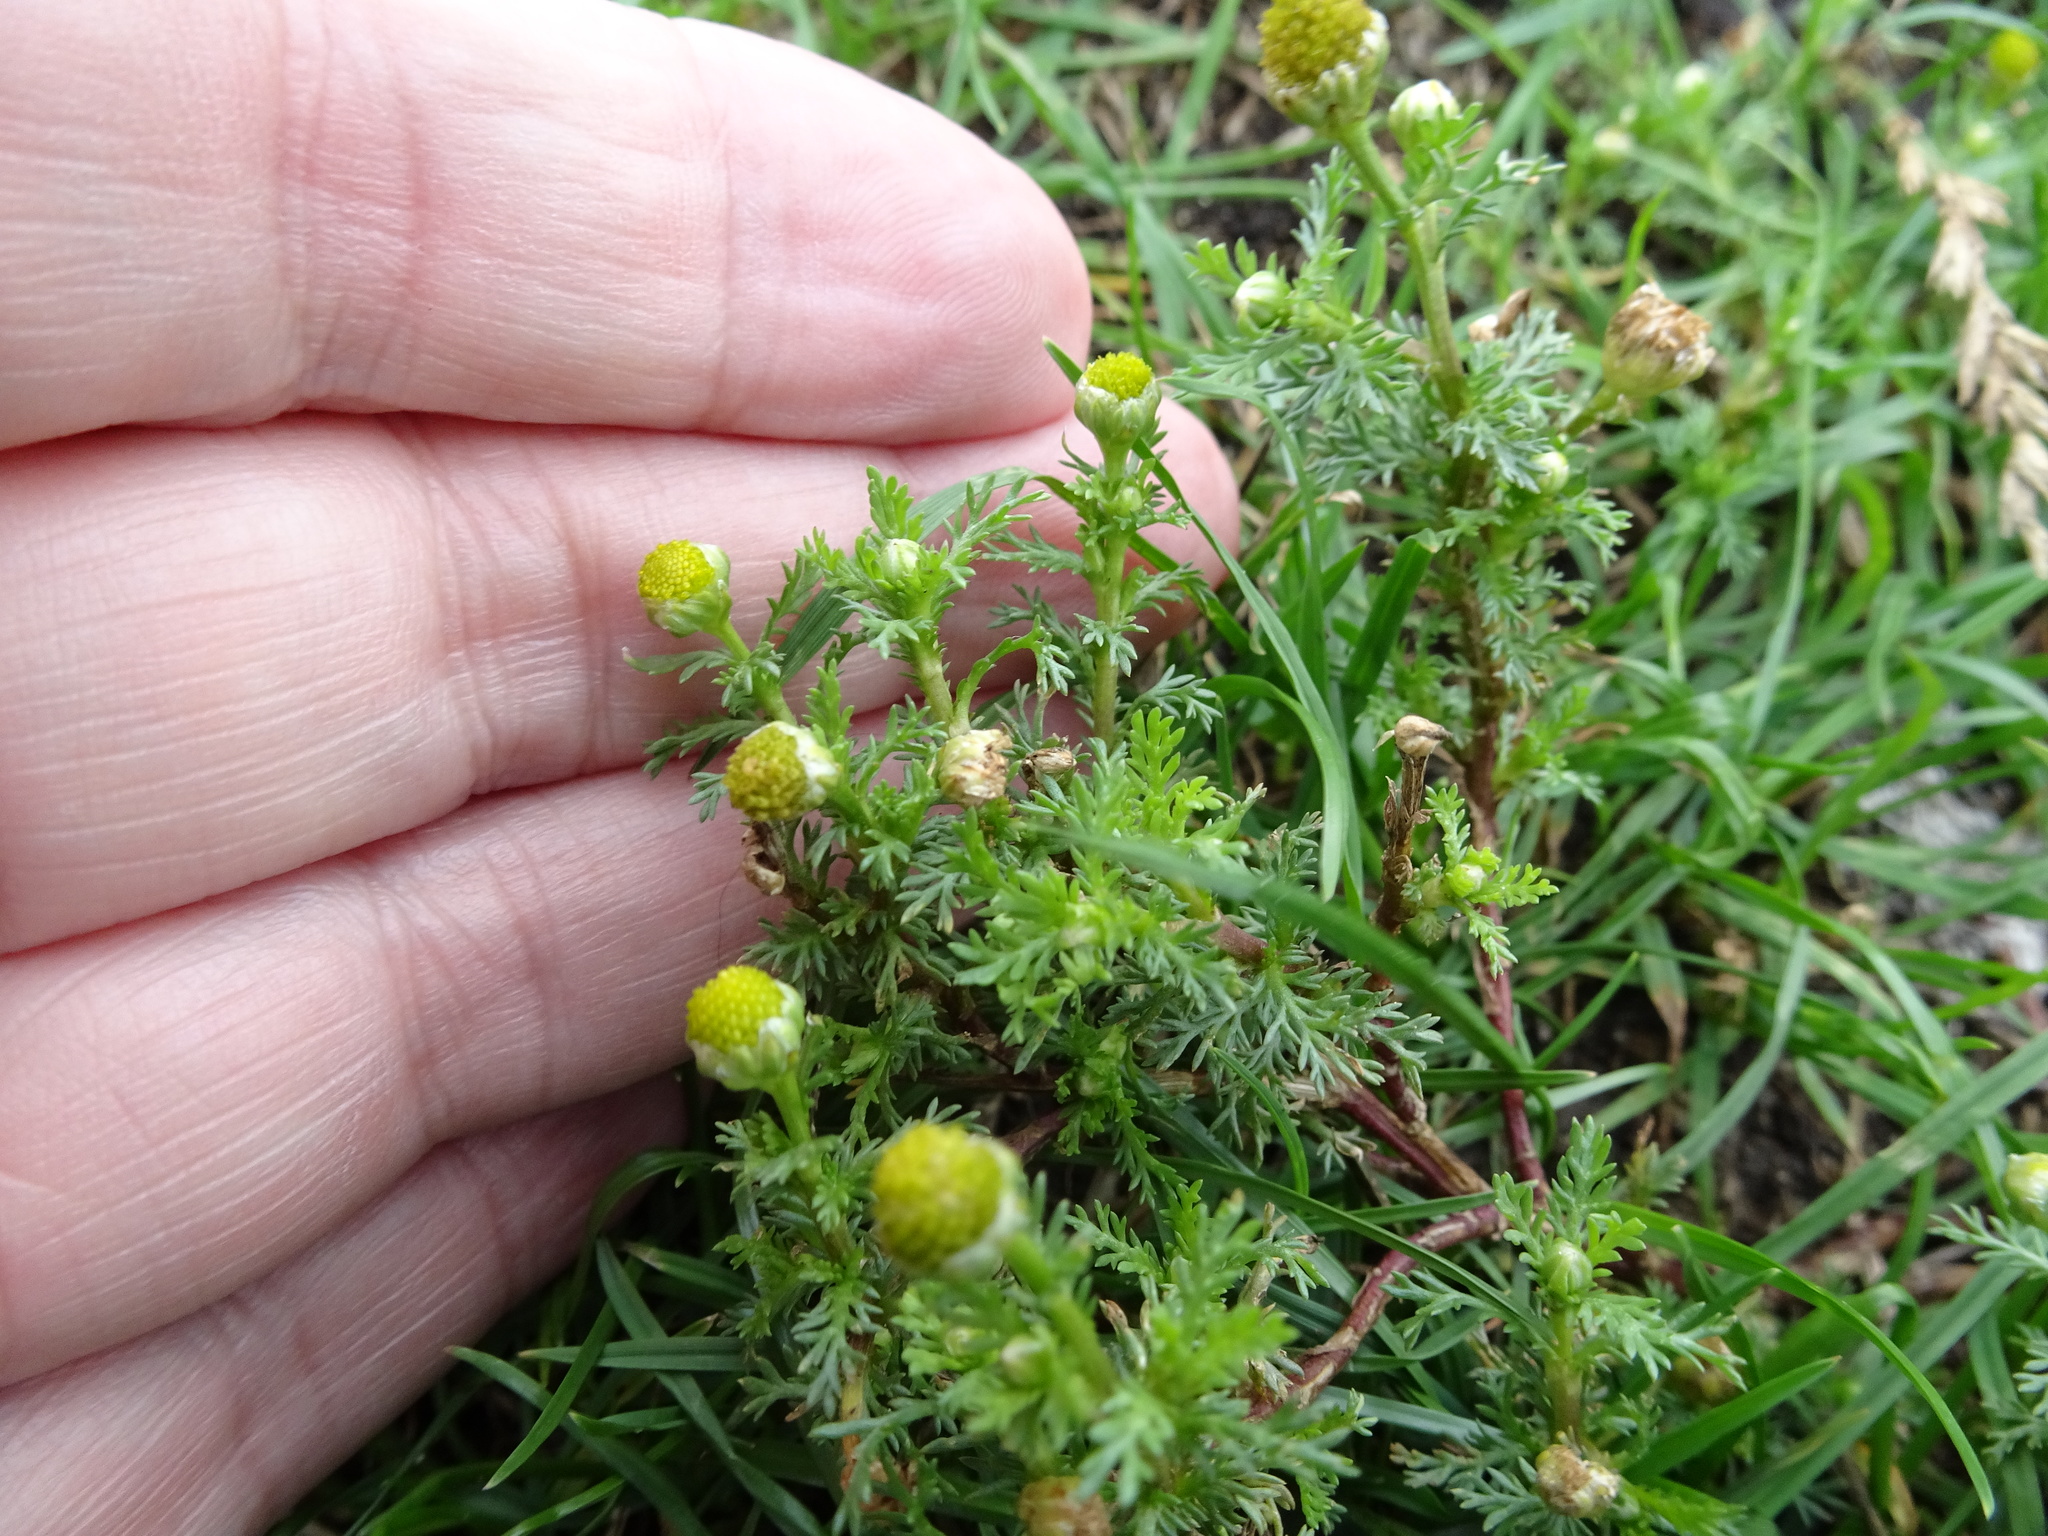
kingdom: Plantae
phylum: Tracheophyta
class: Magnoliopsida
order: Asterales
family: Asteraceae
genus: Matricaria
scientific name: Matricaria discoidea
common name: Disc mayweed
